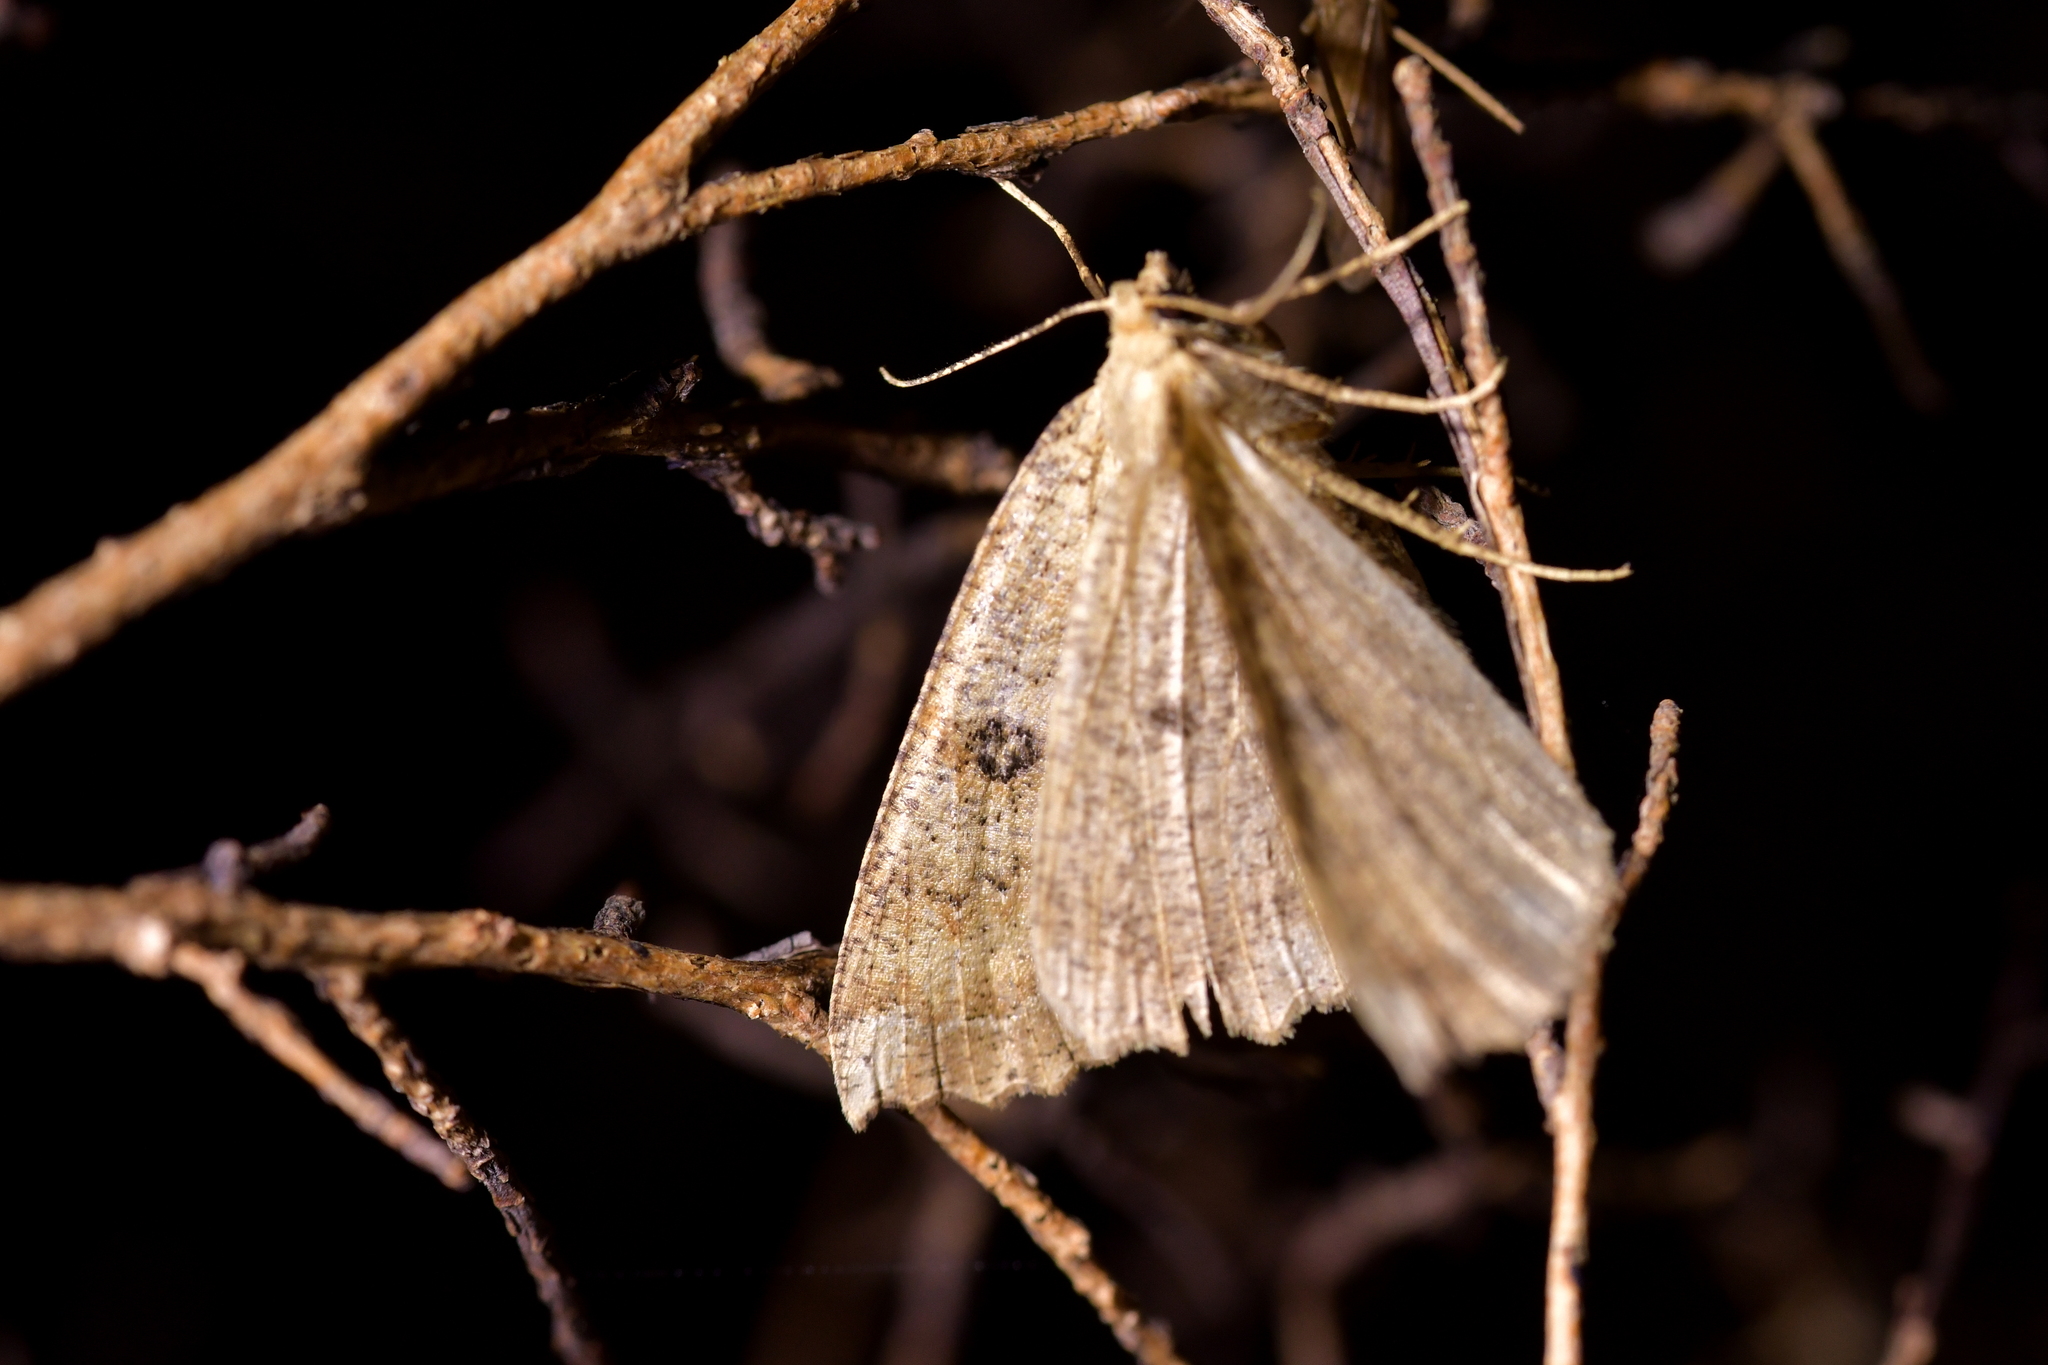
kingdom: Animalia
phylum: Arthropoda
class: Insecta
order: Lepidoptera
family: Geometridae
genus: Cleora
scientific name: Cleora scriptaria
